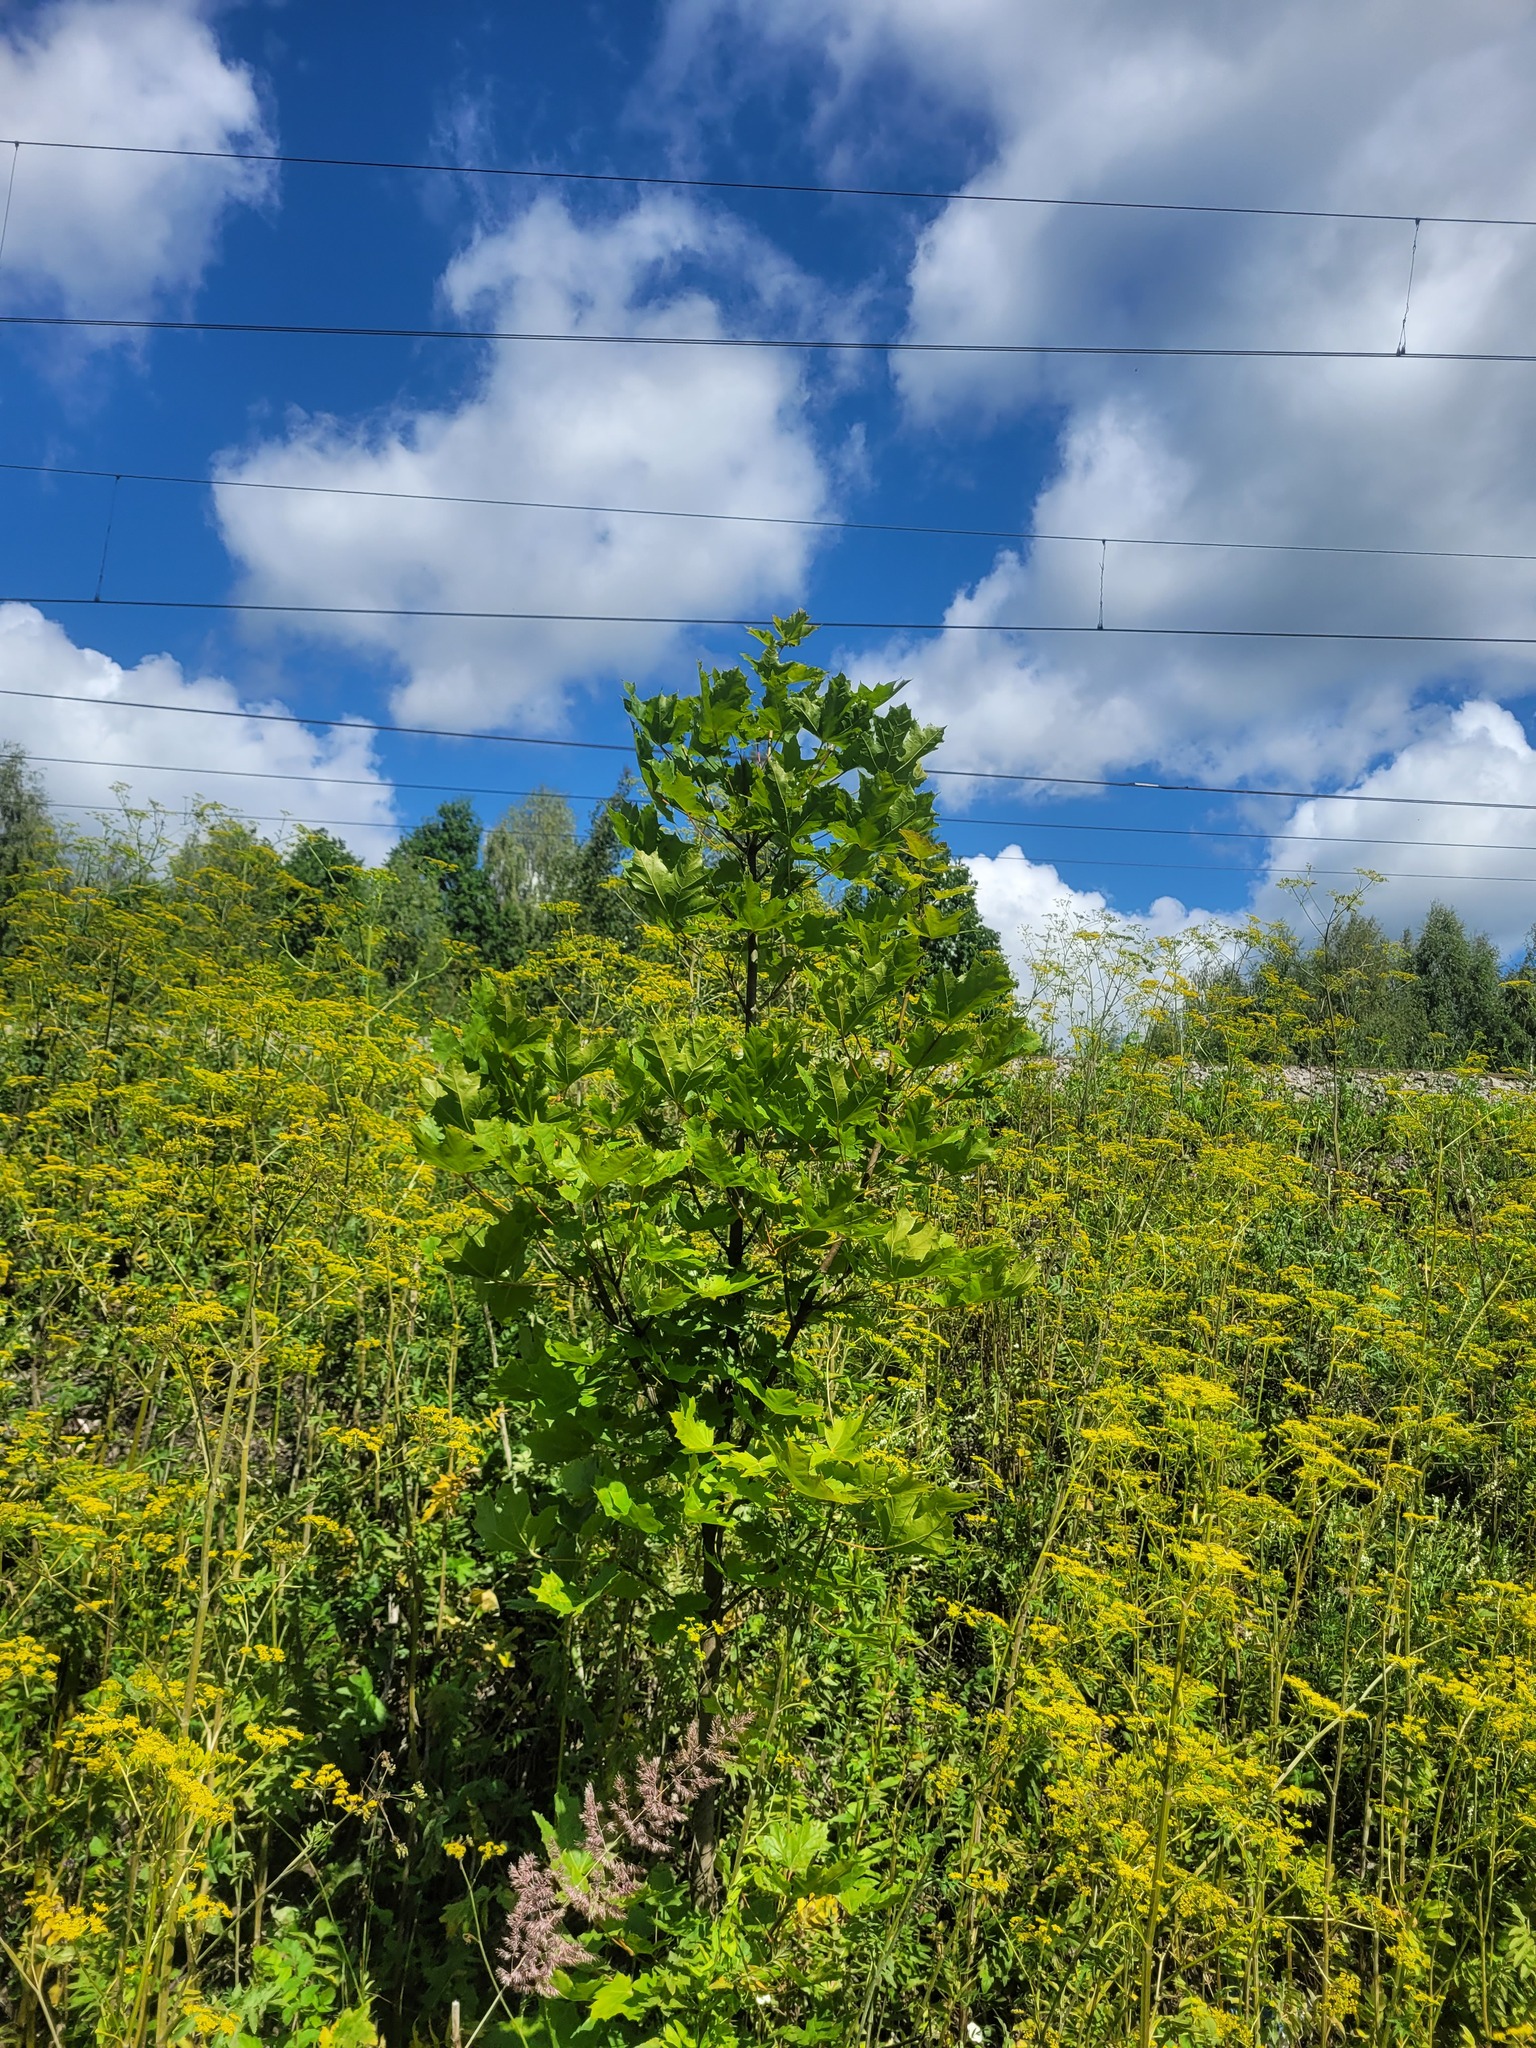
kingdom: Plantae
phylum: Tracheophyta
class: Magnoliopsida
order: Sapindales
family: Sapindaceae
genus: Acer
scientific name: Acer platanoides
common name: Norway maple
